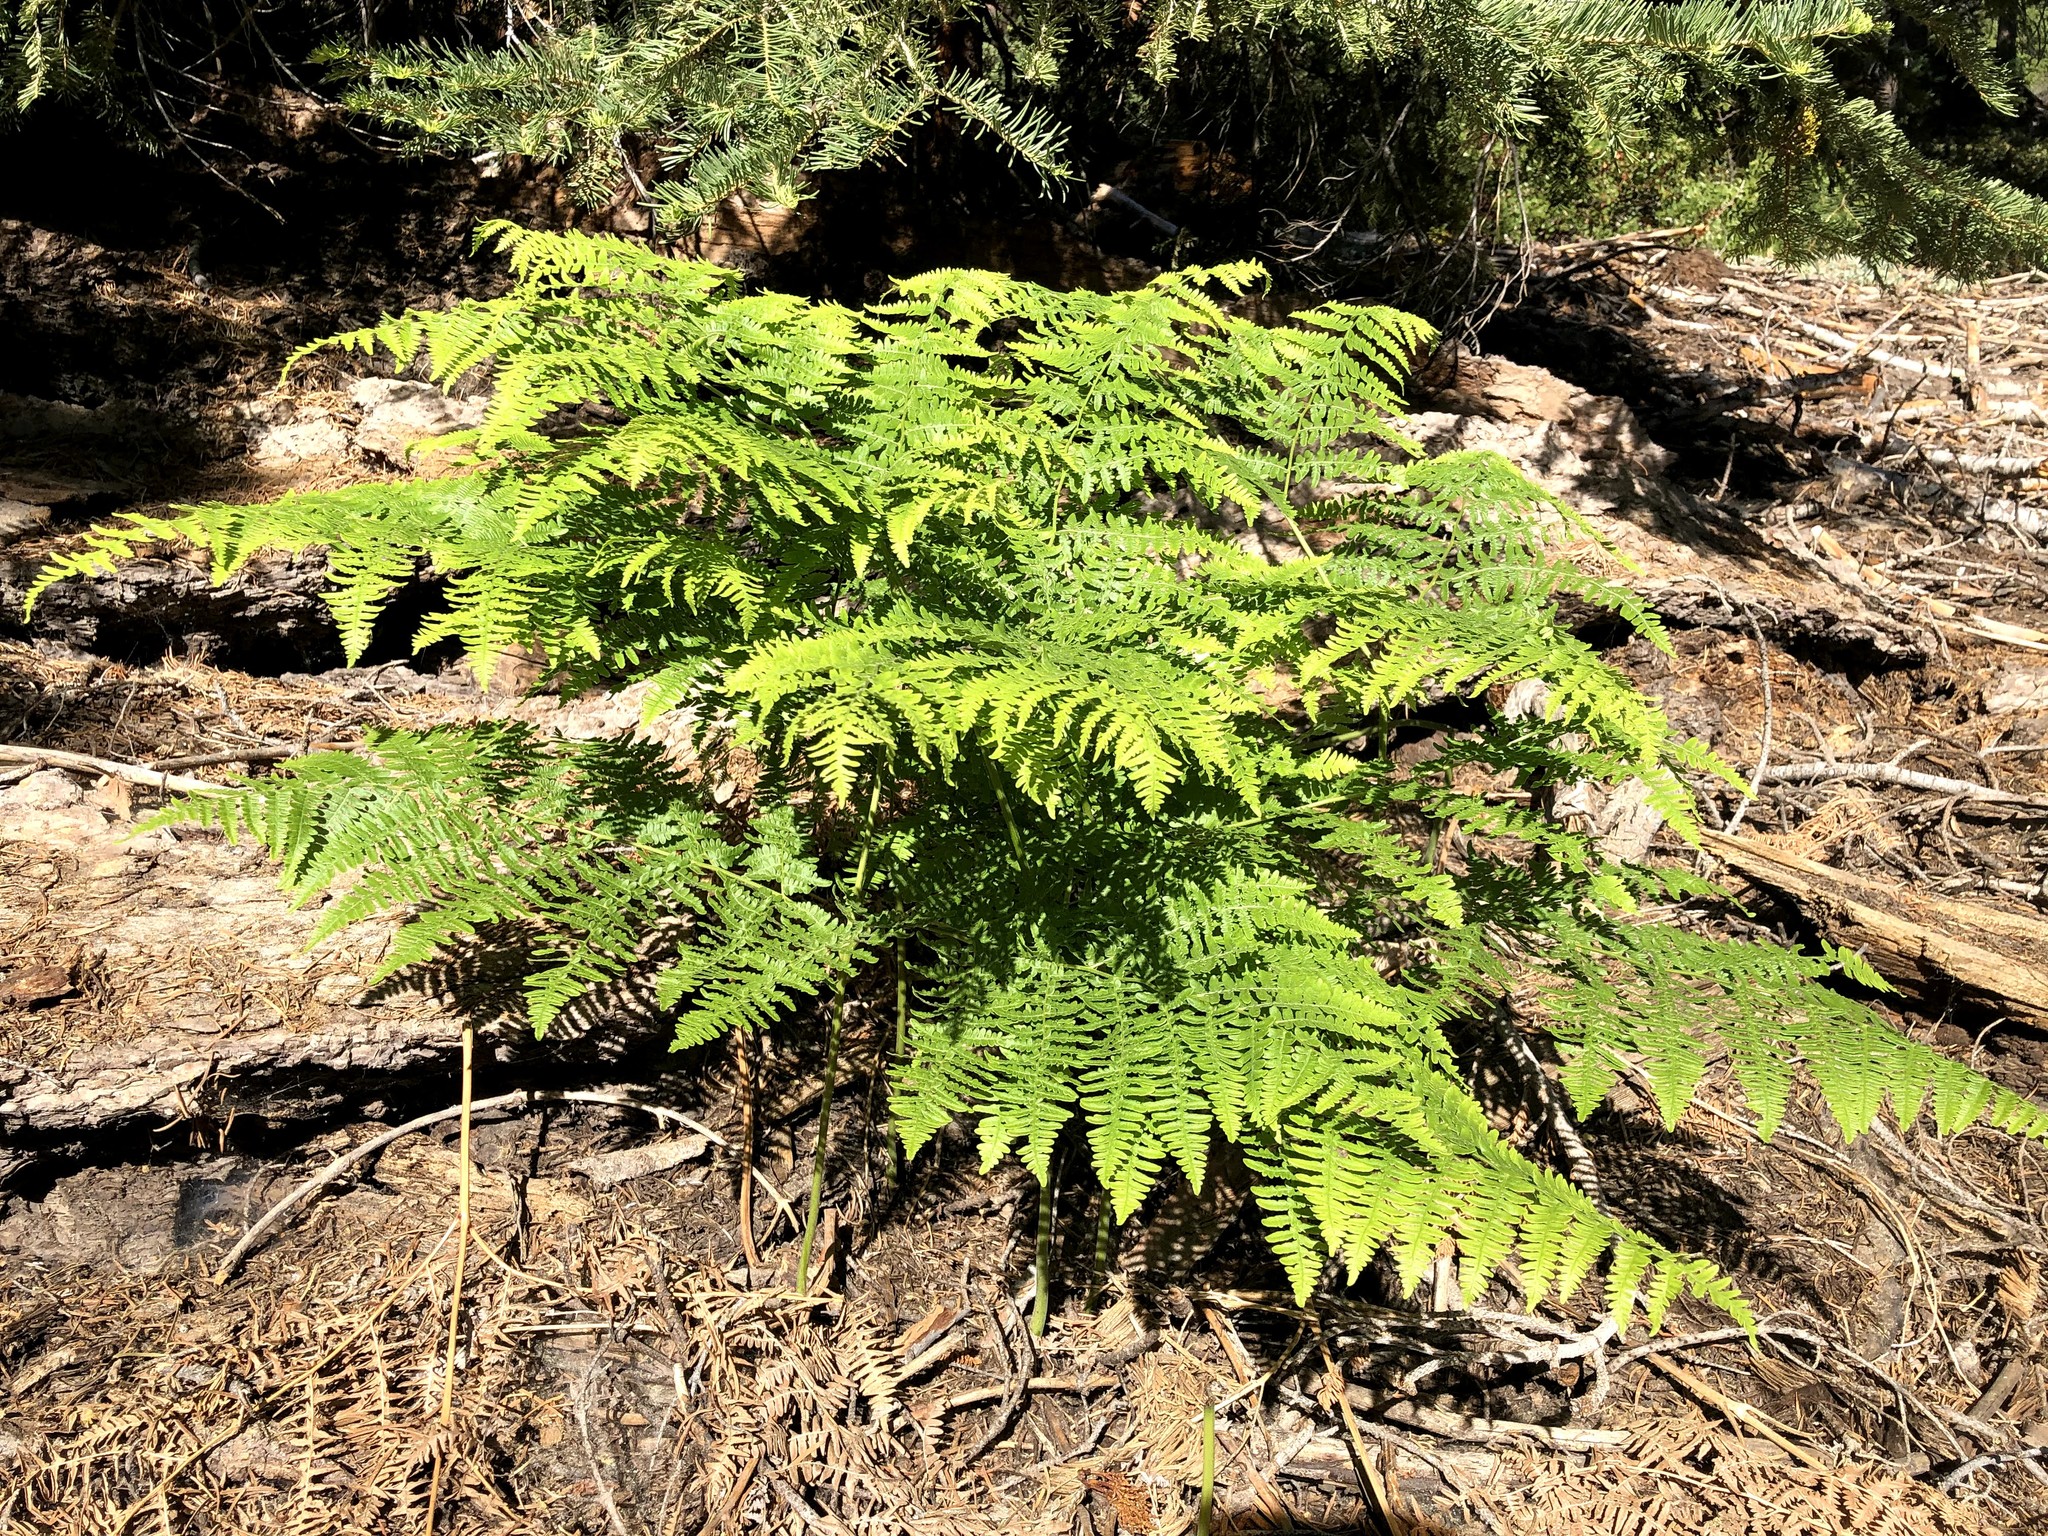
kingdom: Plantae
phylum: Tracheophyta
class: Polypodiopsida
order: Polypodiales
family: Dennstaedtiaceae
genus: Pteridium
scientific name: Pteridium aquilinum
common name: Bracken
